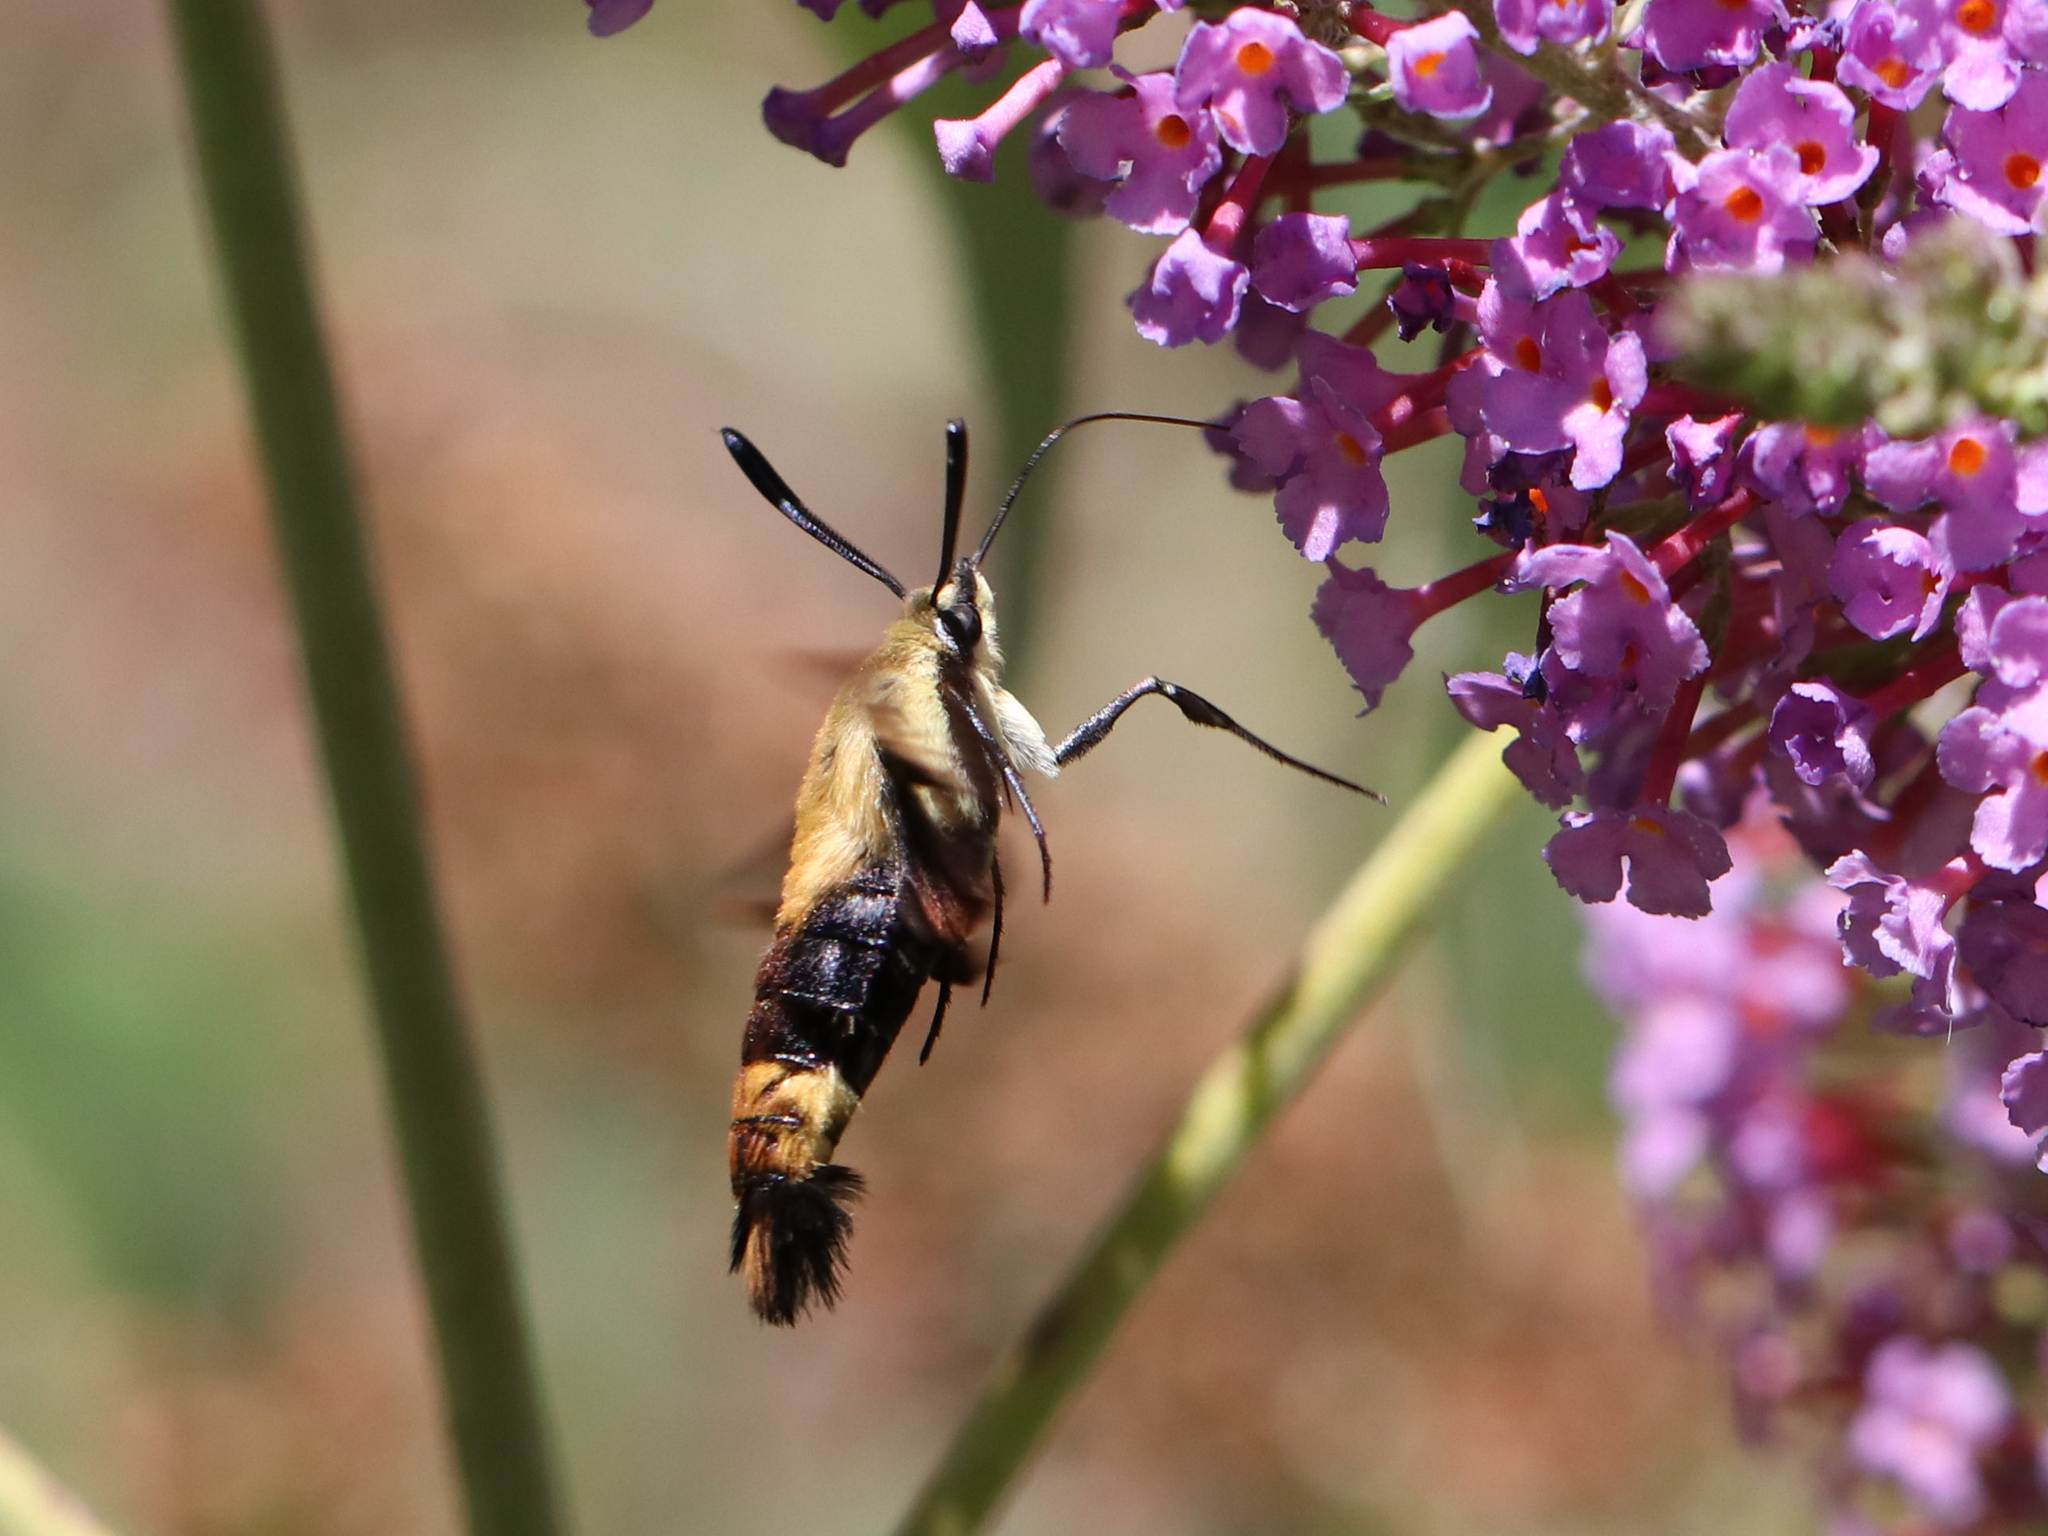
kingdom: Animalia
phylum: Arthropoda
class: Insecta
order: Lepidoptera
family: Sphingidae
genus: Hemaris
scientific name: Hemaris diffinis
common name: Bumblebee moth
